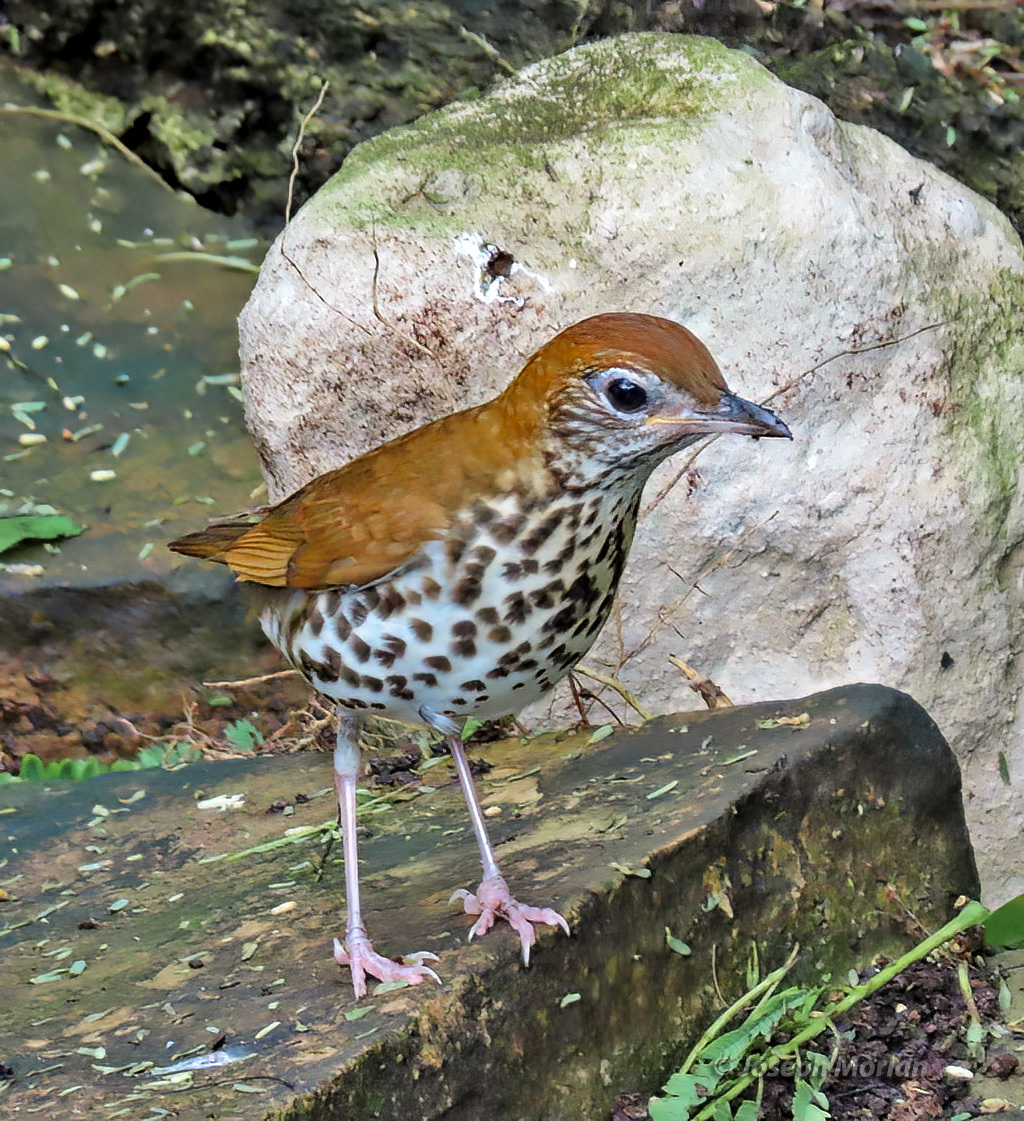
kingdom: Animalia
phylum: Chordata
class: Aves
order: Passeriformes
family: Turdidae
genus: Hylocichla
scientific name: Hylocichla mustelina
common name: Wood thrush
